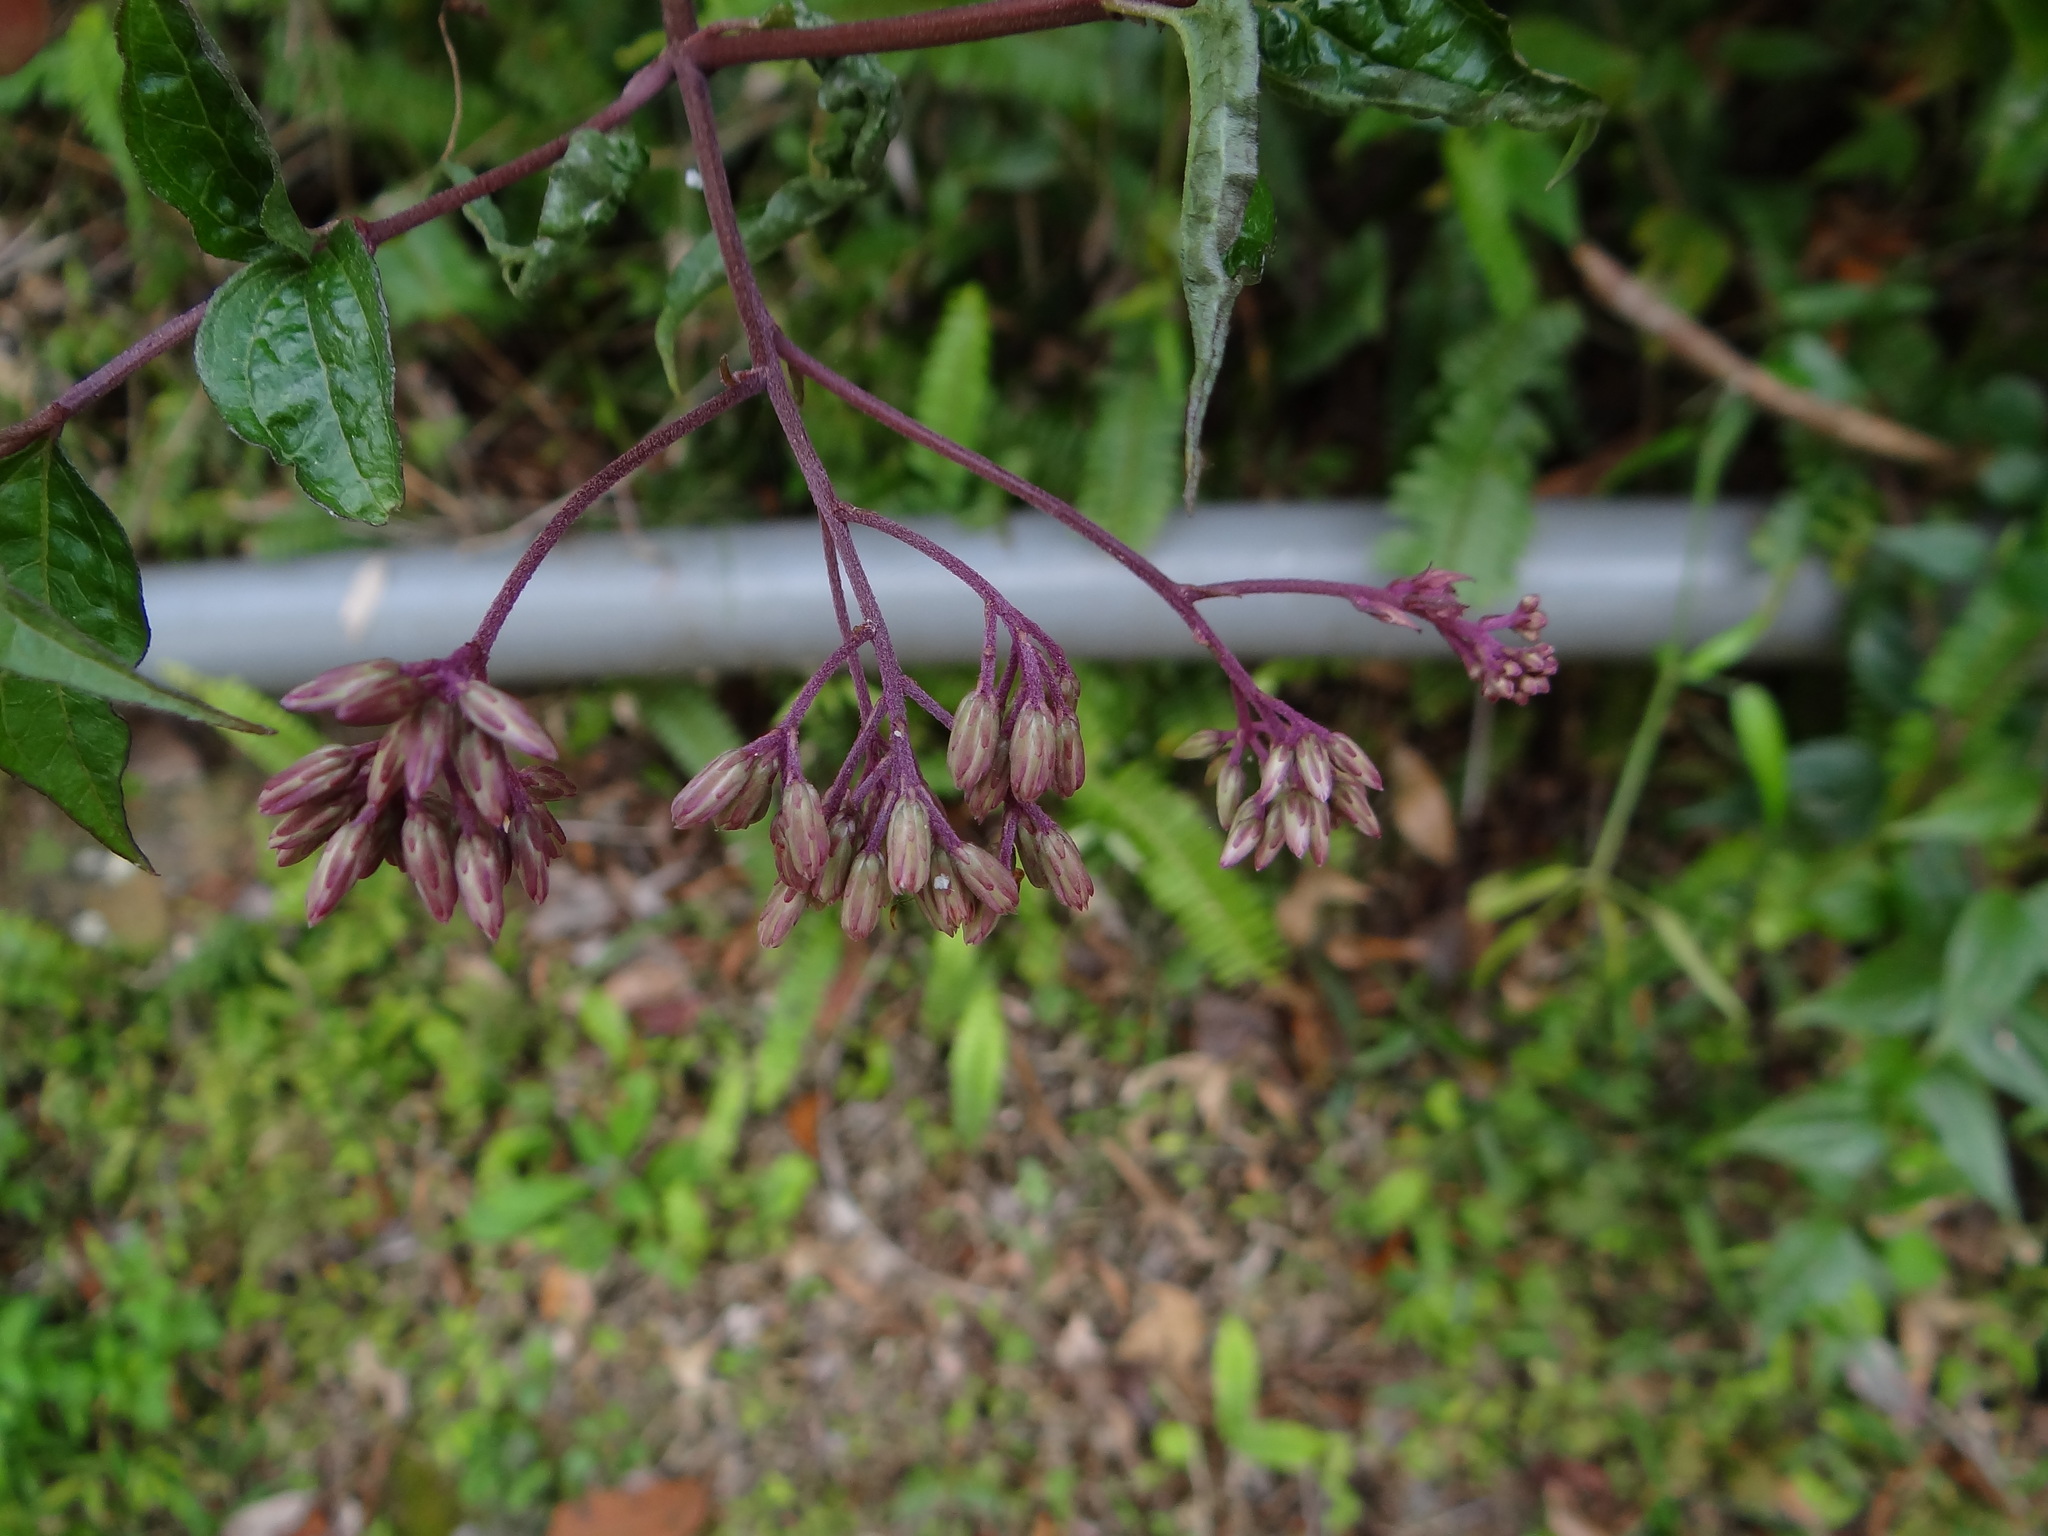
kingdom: Plantae
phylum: Tracheophyta
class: Magnoliopsida
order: Asterales
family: Asteraceae
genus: Eupatorium
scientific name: Eupatorium amabile
